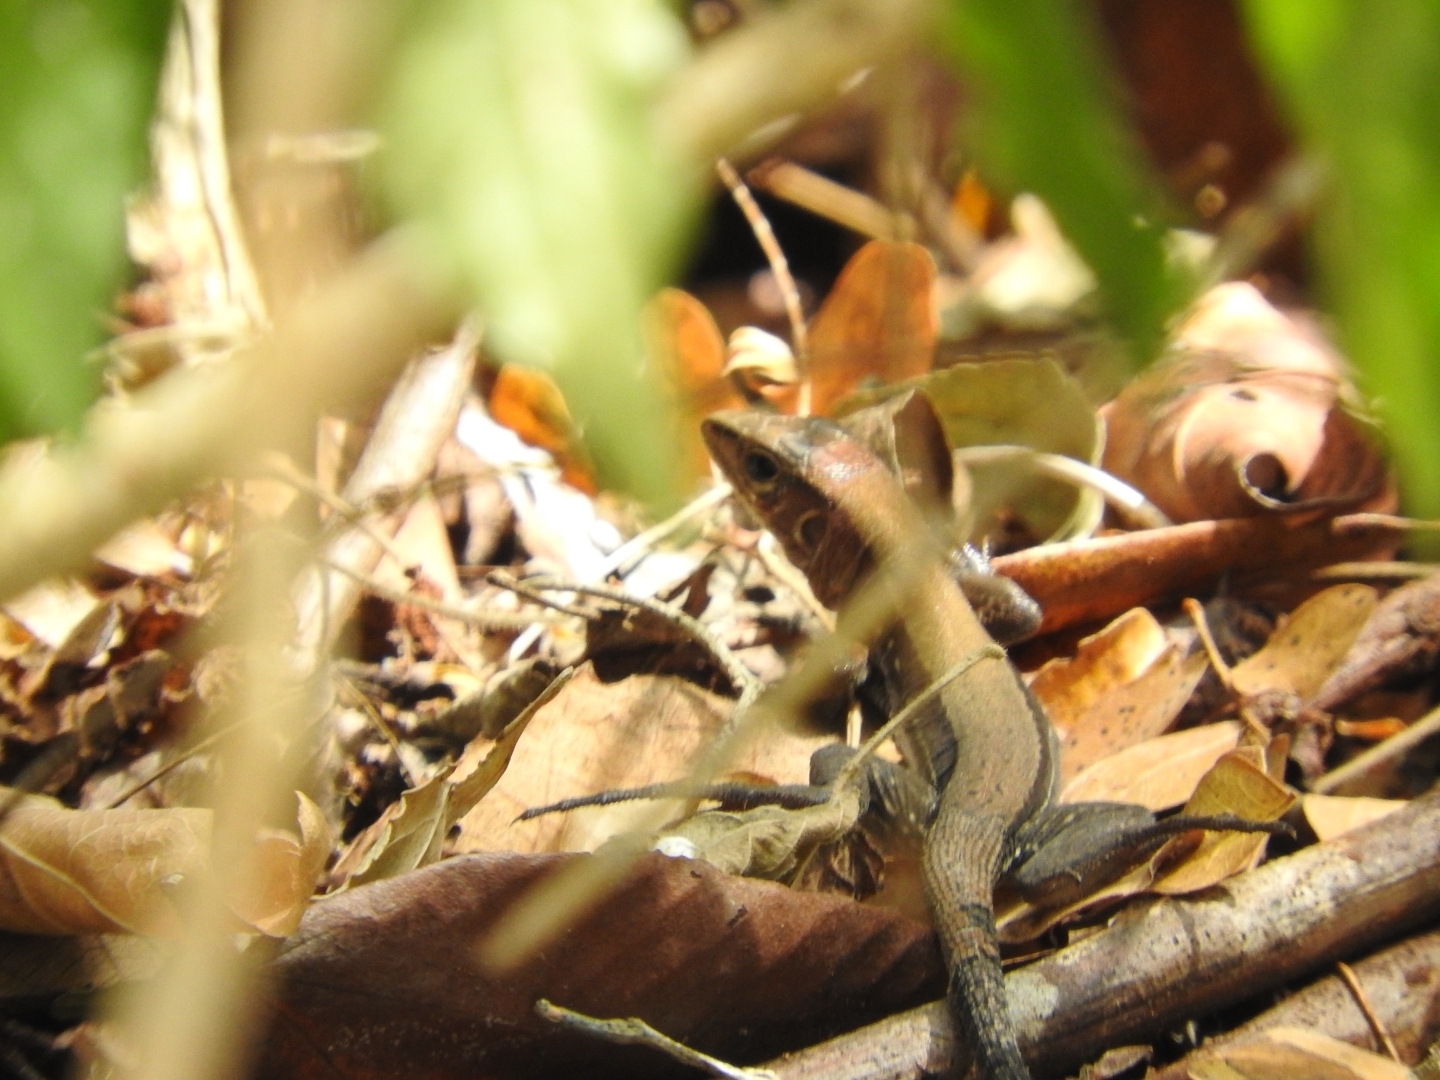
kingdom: Animalia
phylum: Chordata
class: Squamata
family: Teiidae
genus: Holcosus
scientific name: Holcosus gaigeae
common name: Rainbow ameiva
